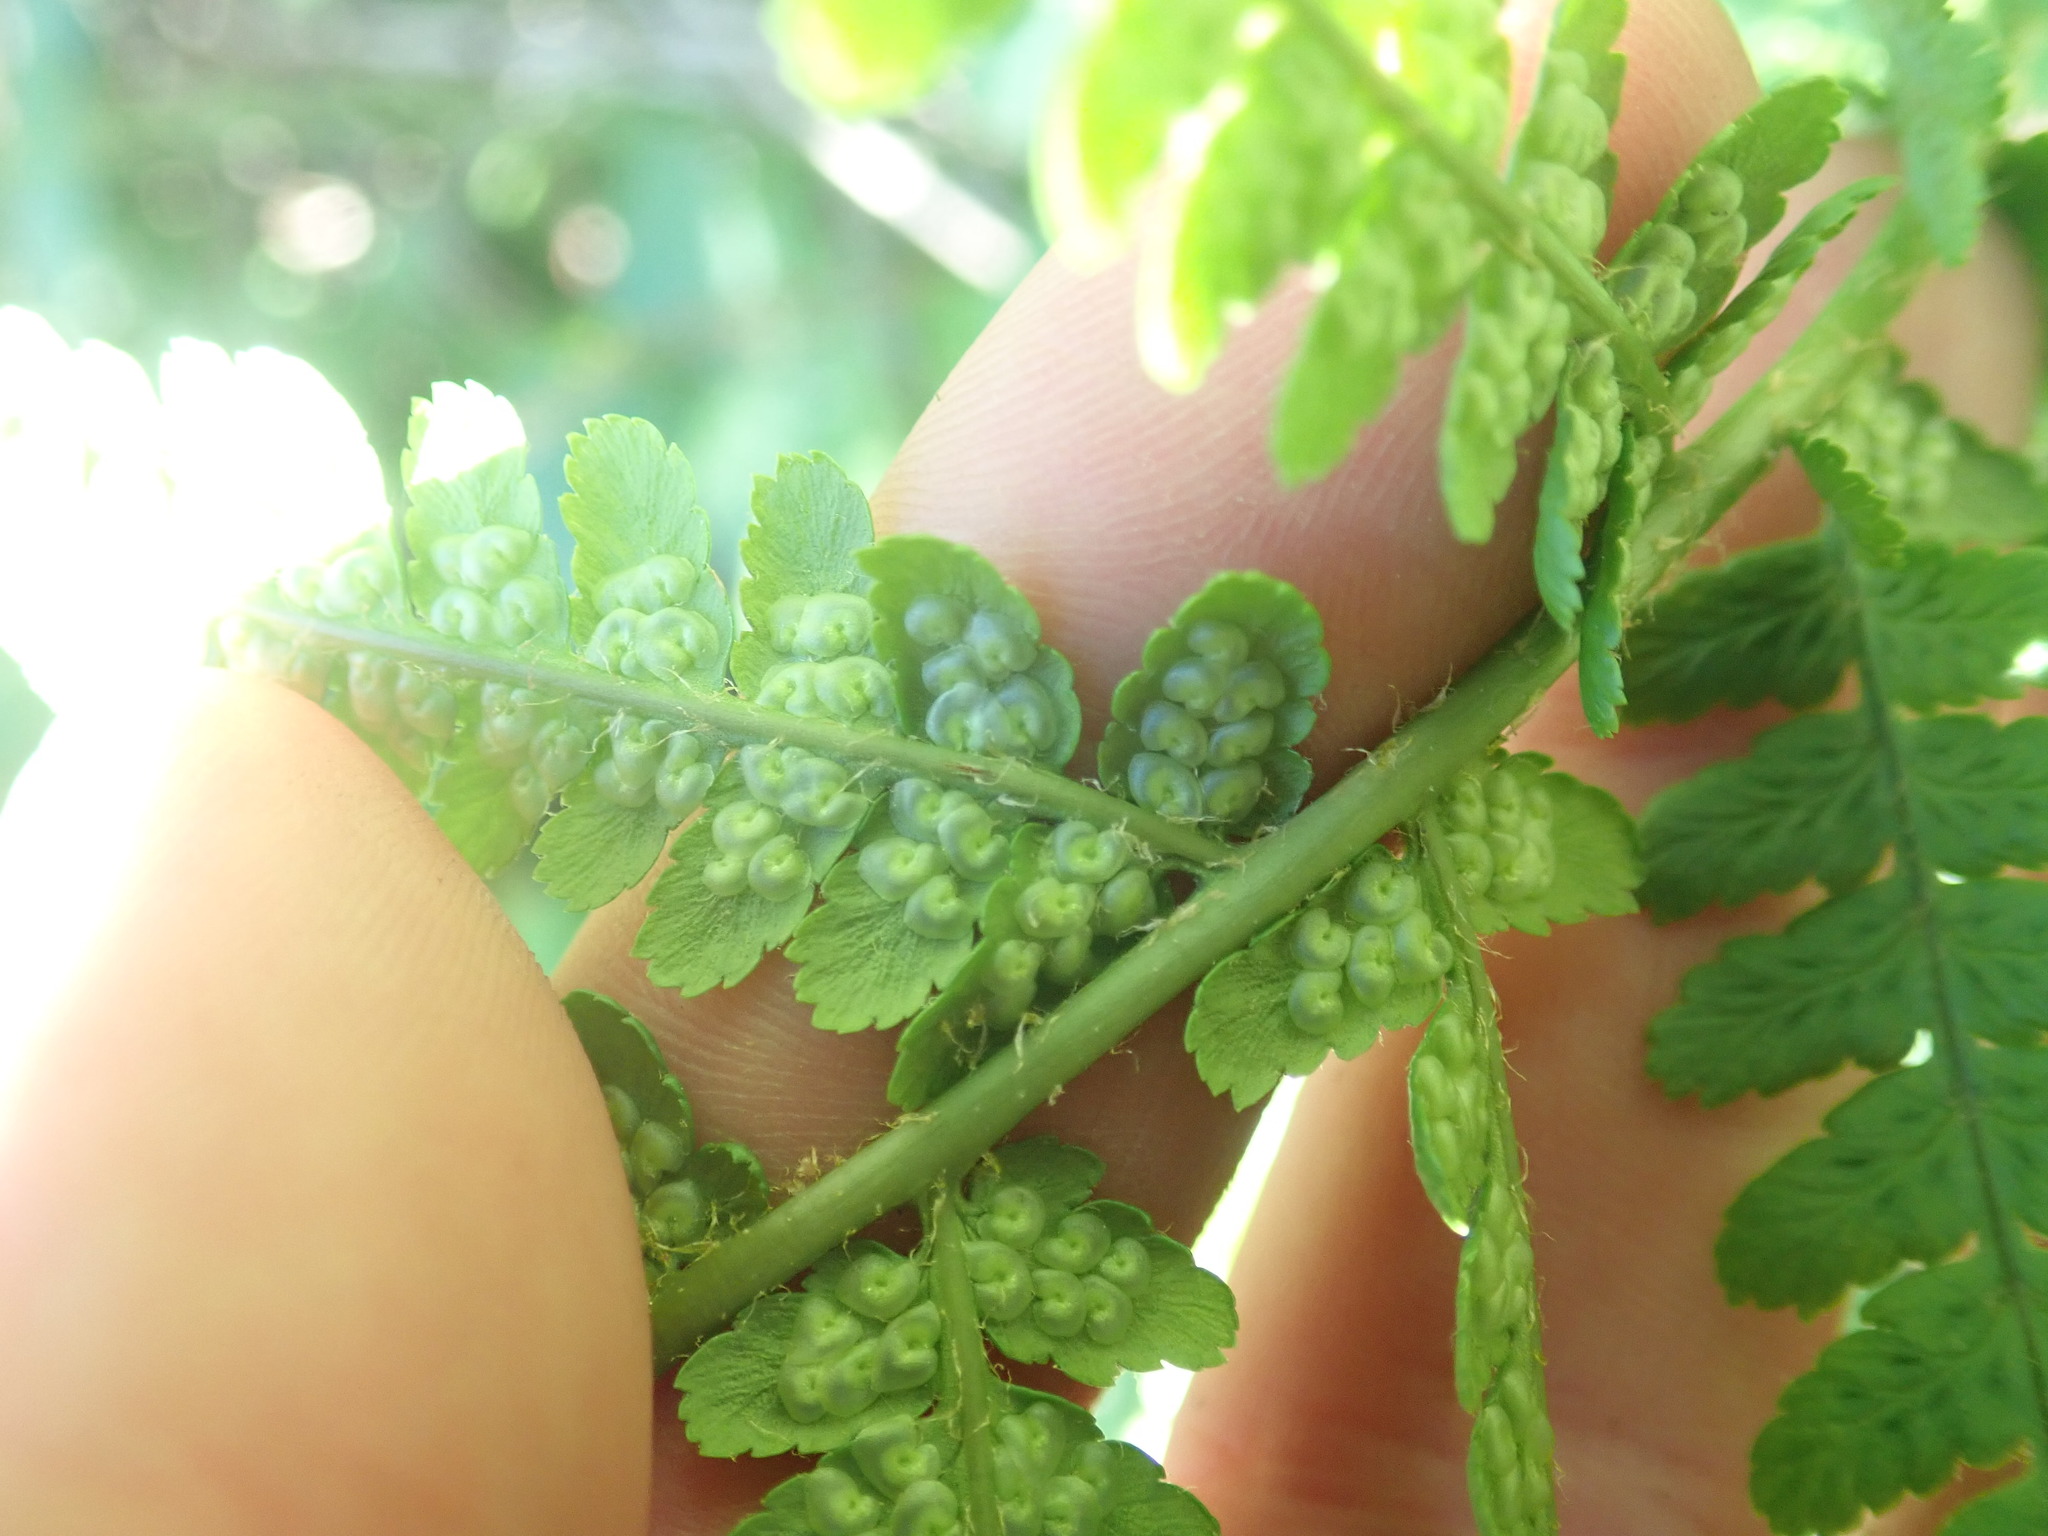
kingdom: Plantae
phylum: Tracheophyta
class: Polypodiopsida
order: Polypodiales
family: Dryopteridaceae
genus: Dryopteris
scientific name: Dryopteris filix-mas
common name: Male fern
